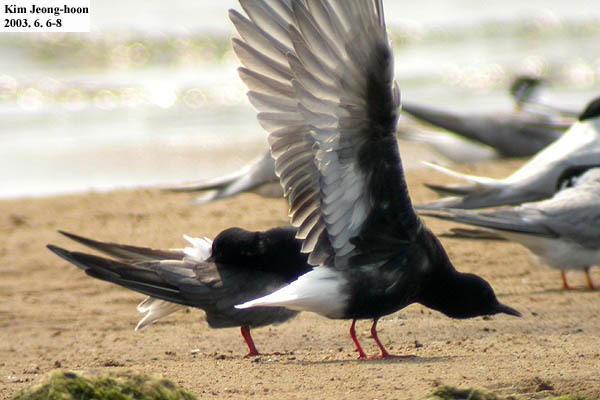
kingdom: Animalia
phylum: Chordata
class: Aves
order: Charadriiformes
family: Laridae
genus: Chlidonias
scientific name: Chlidonias leucopterus
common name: White-winged tern
